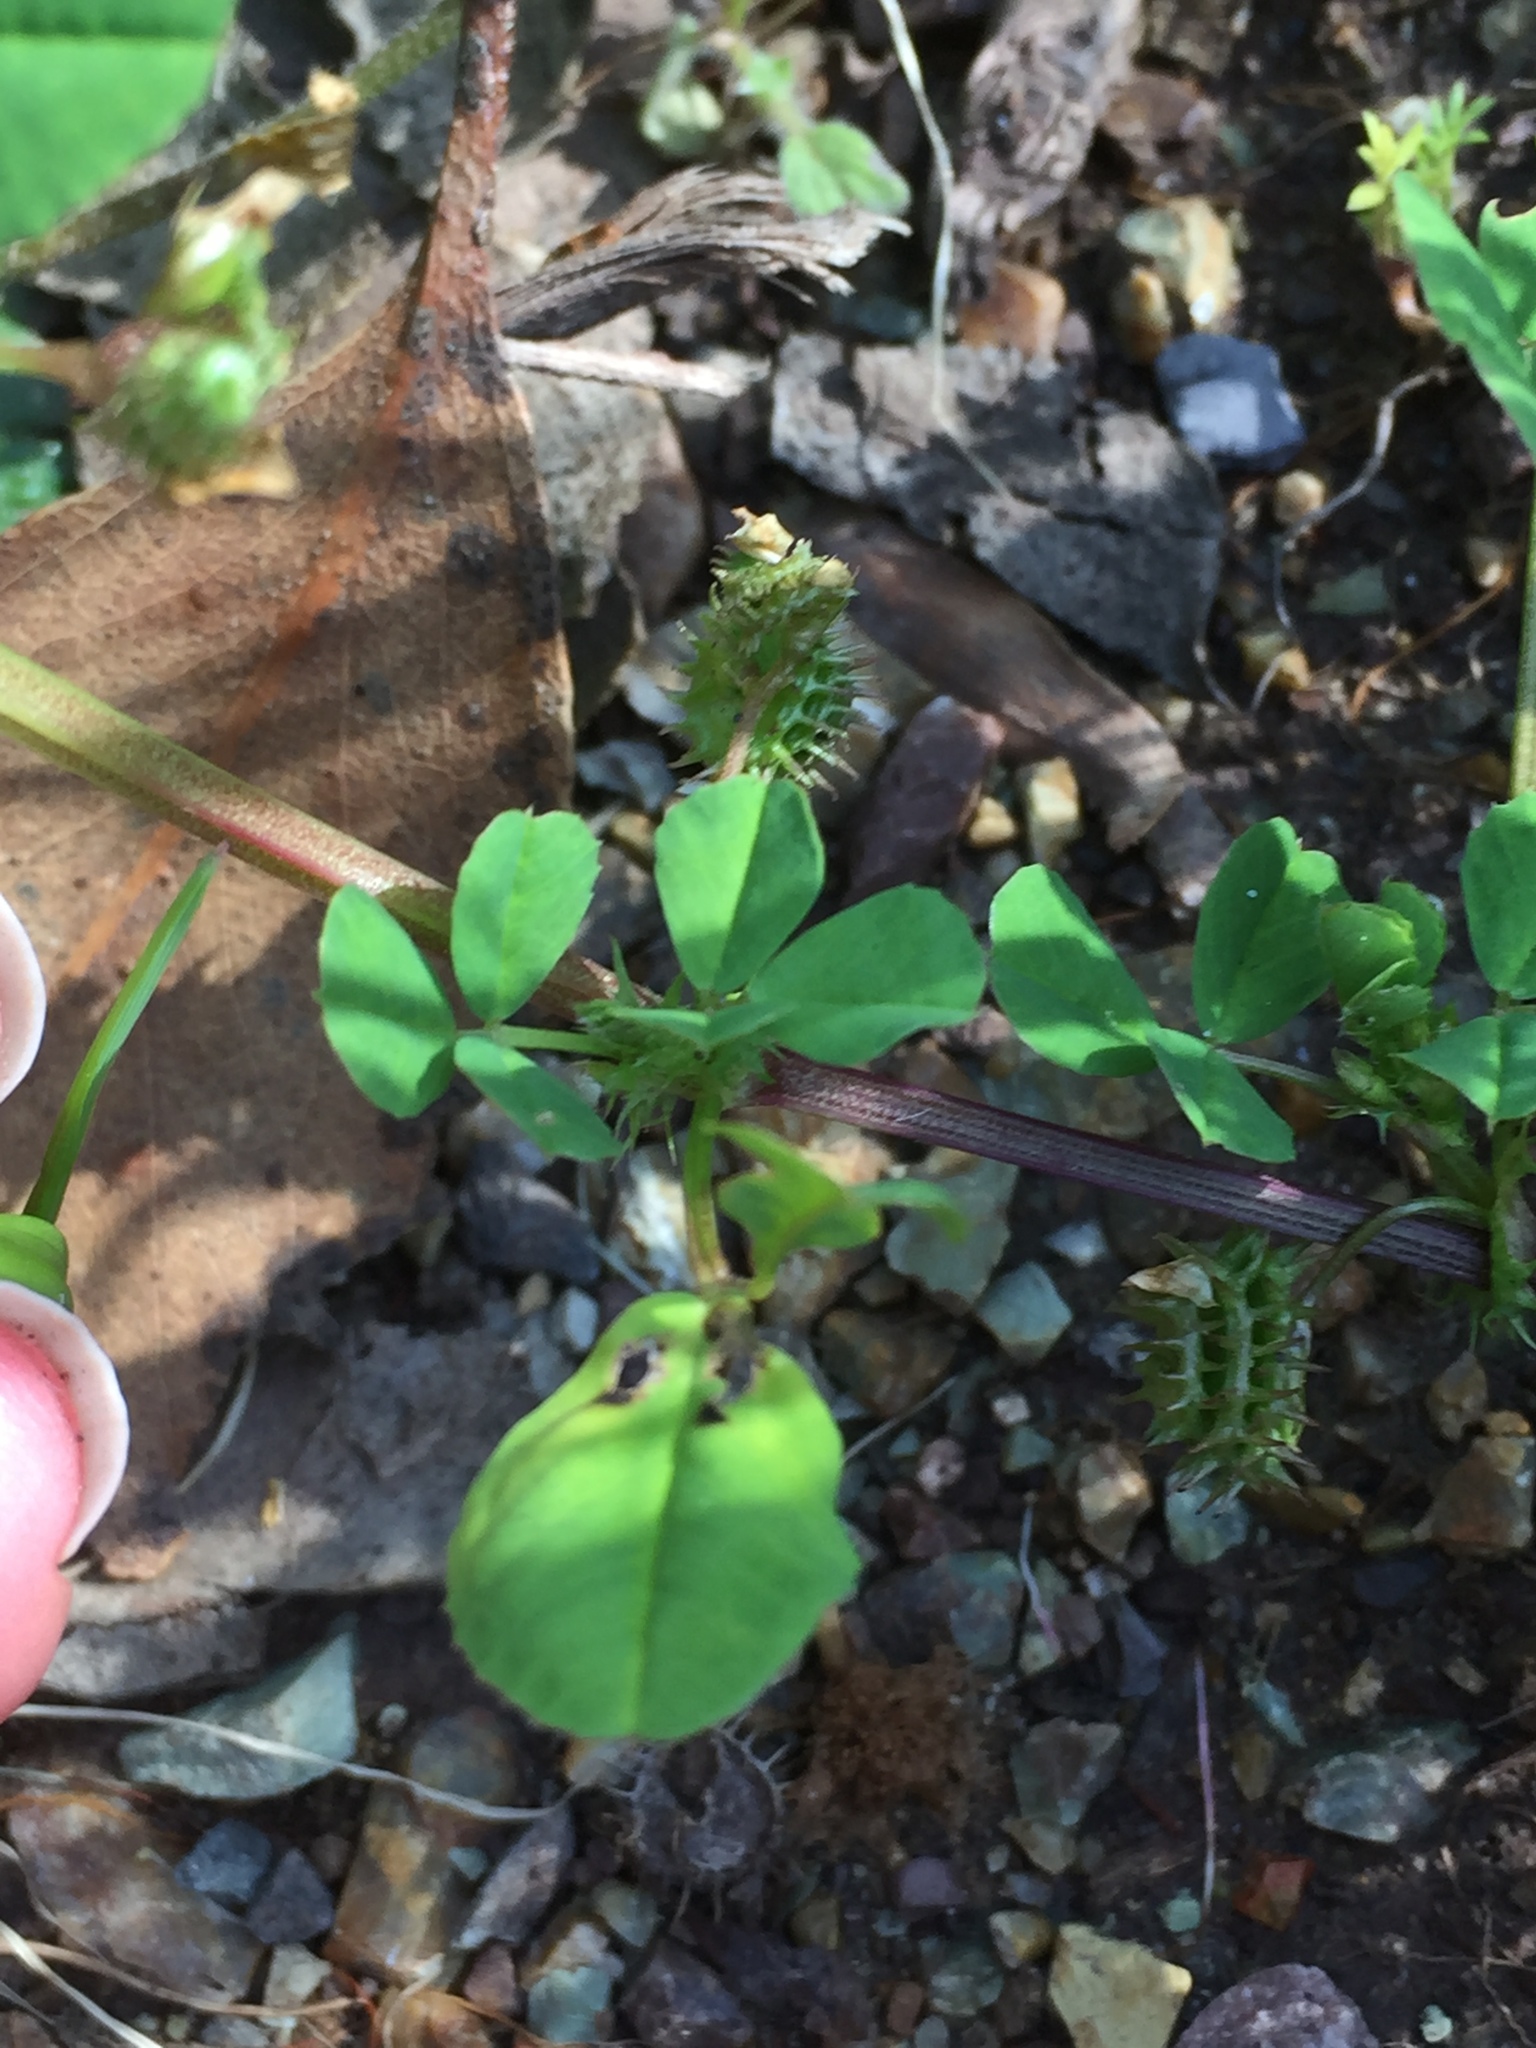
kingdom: Plantae
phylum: Tracheophyta
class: Magnoliopsida
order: Fabales
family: Fabaceae
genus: Medicago
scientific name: Medicago polymorpha
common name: Burclover
